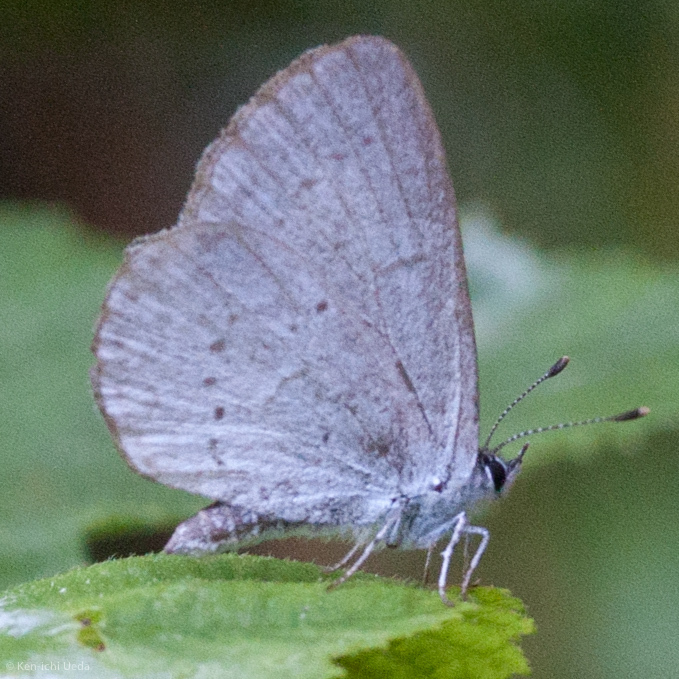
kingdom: Animalia
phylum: Arthropoda
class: Insecta
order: Lepidoptera
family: Lycaenidae
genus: Celastrina
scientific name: Celastrina ladon
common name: Spring azure
